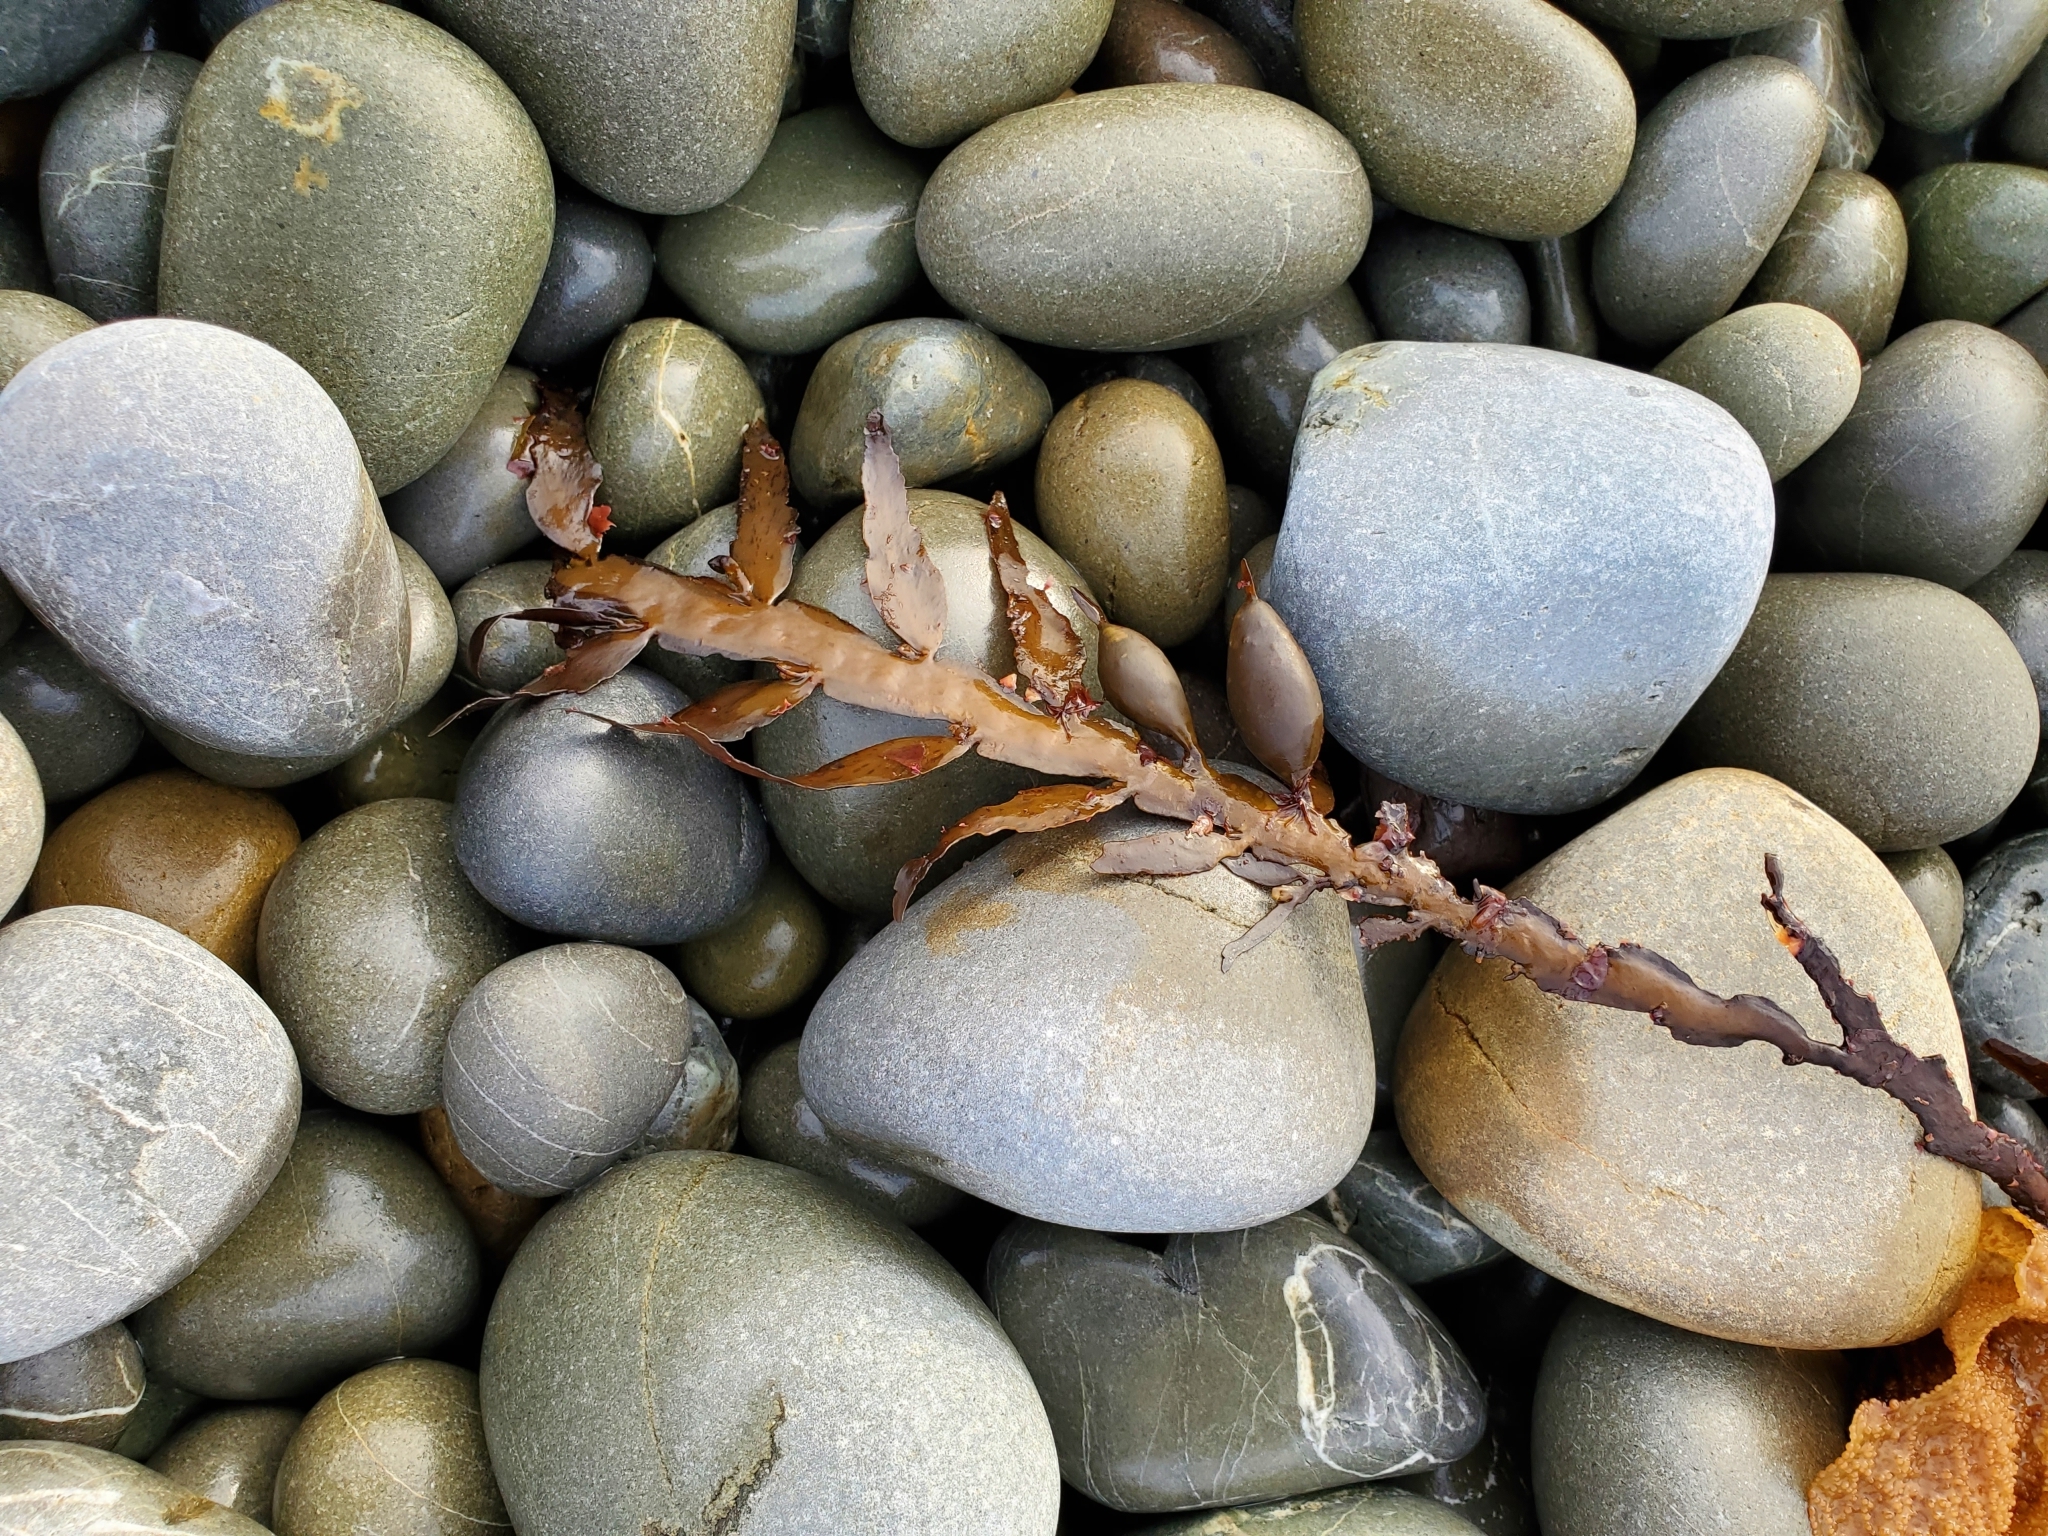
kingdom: Chromista
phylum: Ochrophyta
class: Phaeophyceae
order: Fucales
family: Sargassaceae
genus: Carpophyllum
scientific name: Carpophyllum maschalocarpum
